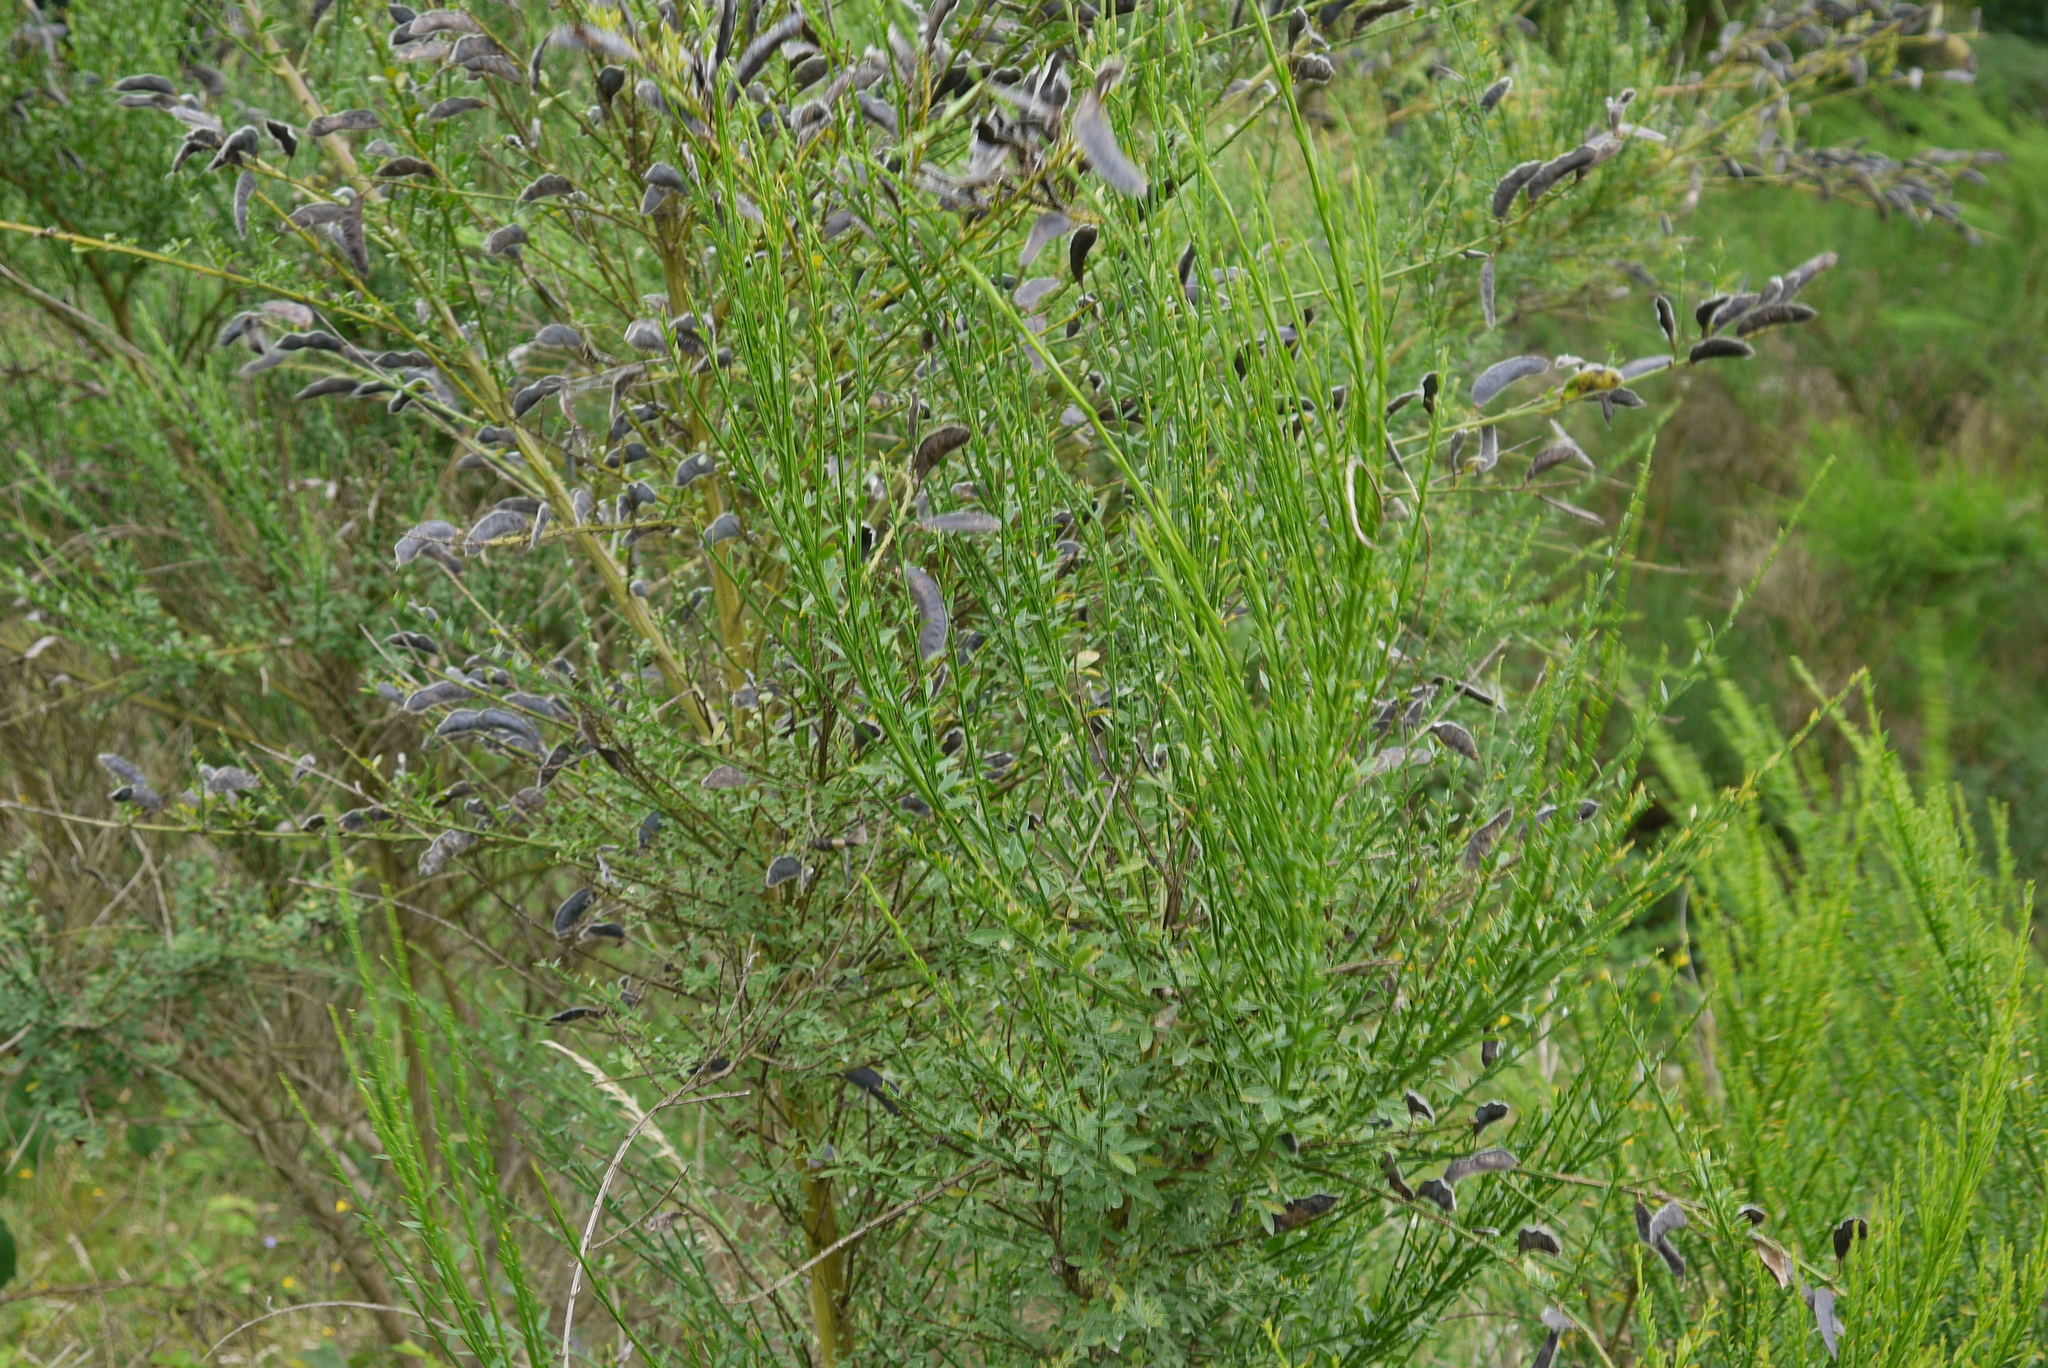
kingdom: Plantae
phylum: Tracheophyta
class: Magnoliopsida
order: Fabales
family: Fabaceae
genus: Cytisus
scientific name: Cytisus scoparius
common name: Scotch broom
